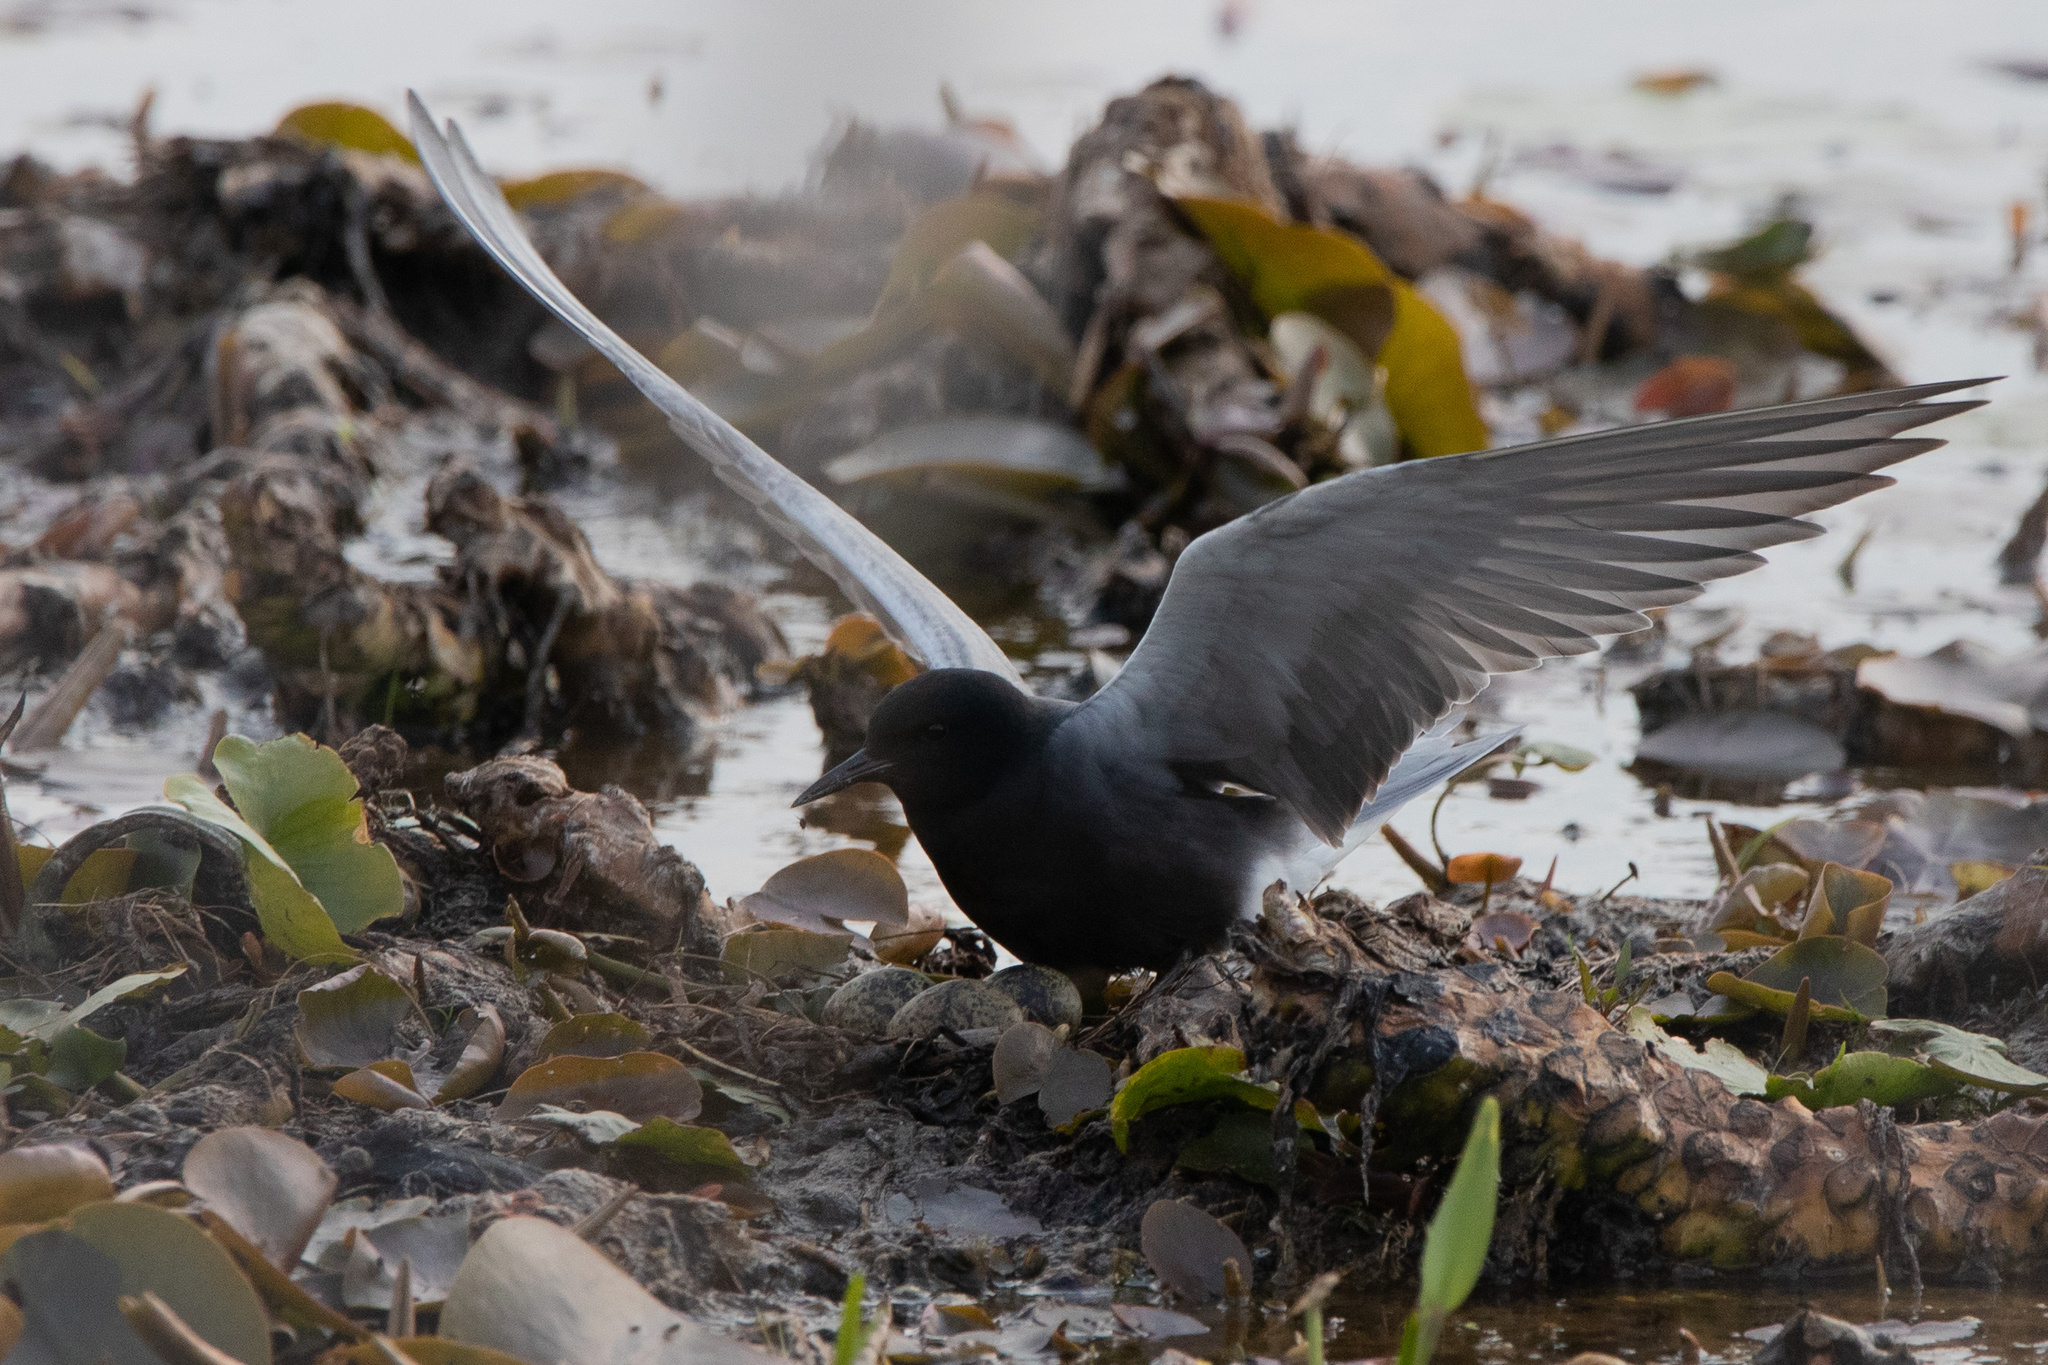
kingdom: Animalia
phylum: Chordata
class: Aves
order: Charadriiformes
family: Laridae
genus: Chlidonias
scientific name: Chlidonias niger
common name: Black tern
